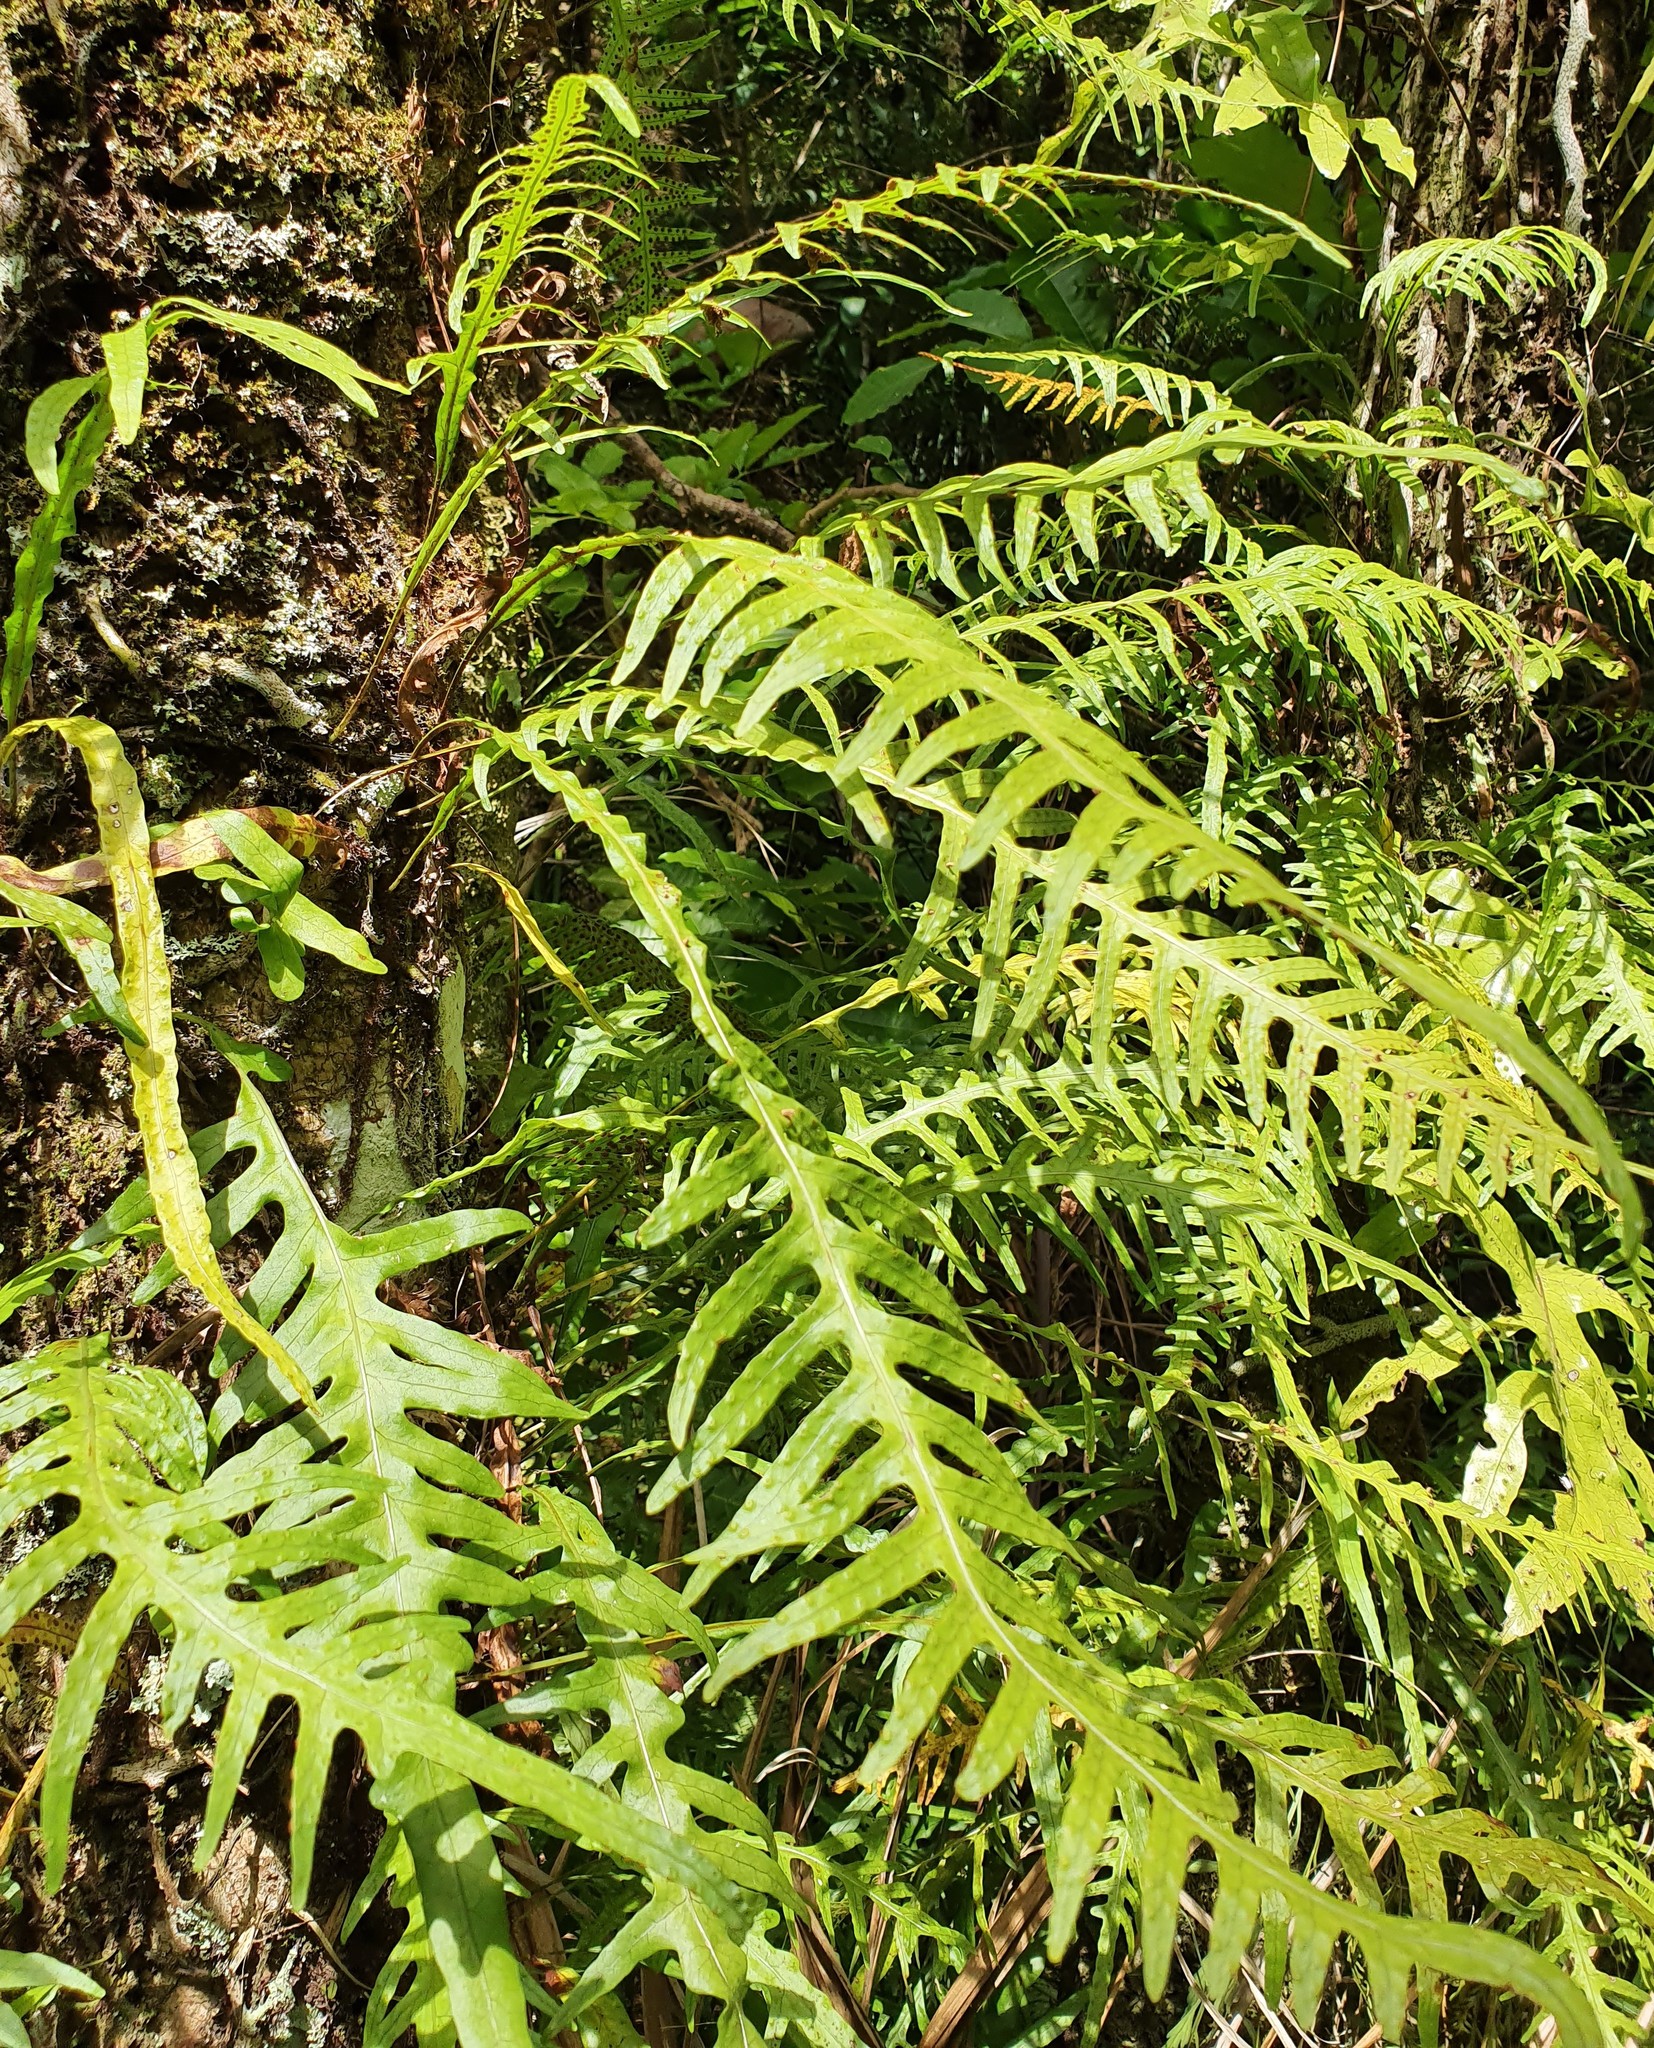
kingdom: Plantae
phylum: Tracheophyta
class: Polypodiopsida
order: Polypodiales
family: Polypodiaceae
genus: Lecanopteris
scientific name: Lecanopteris scandens
